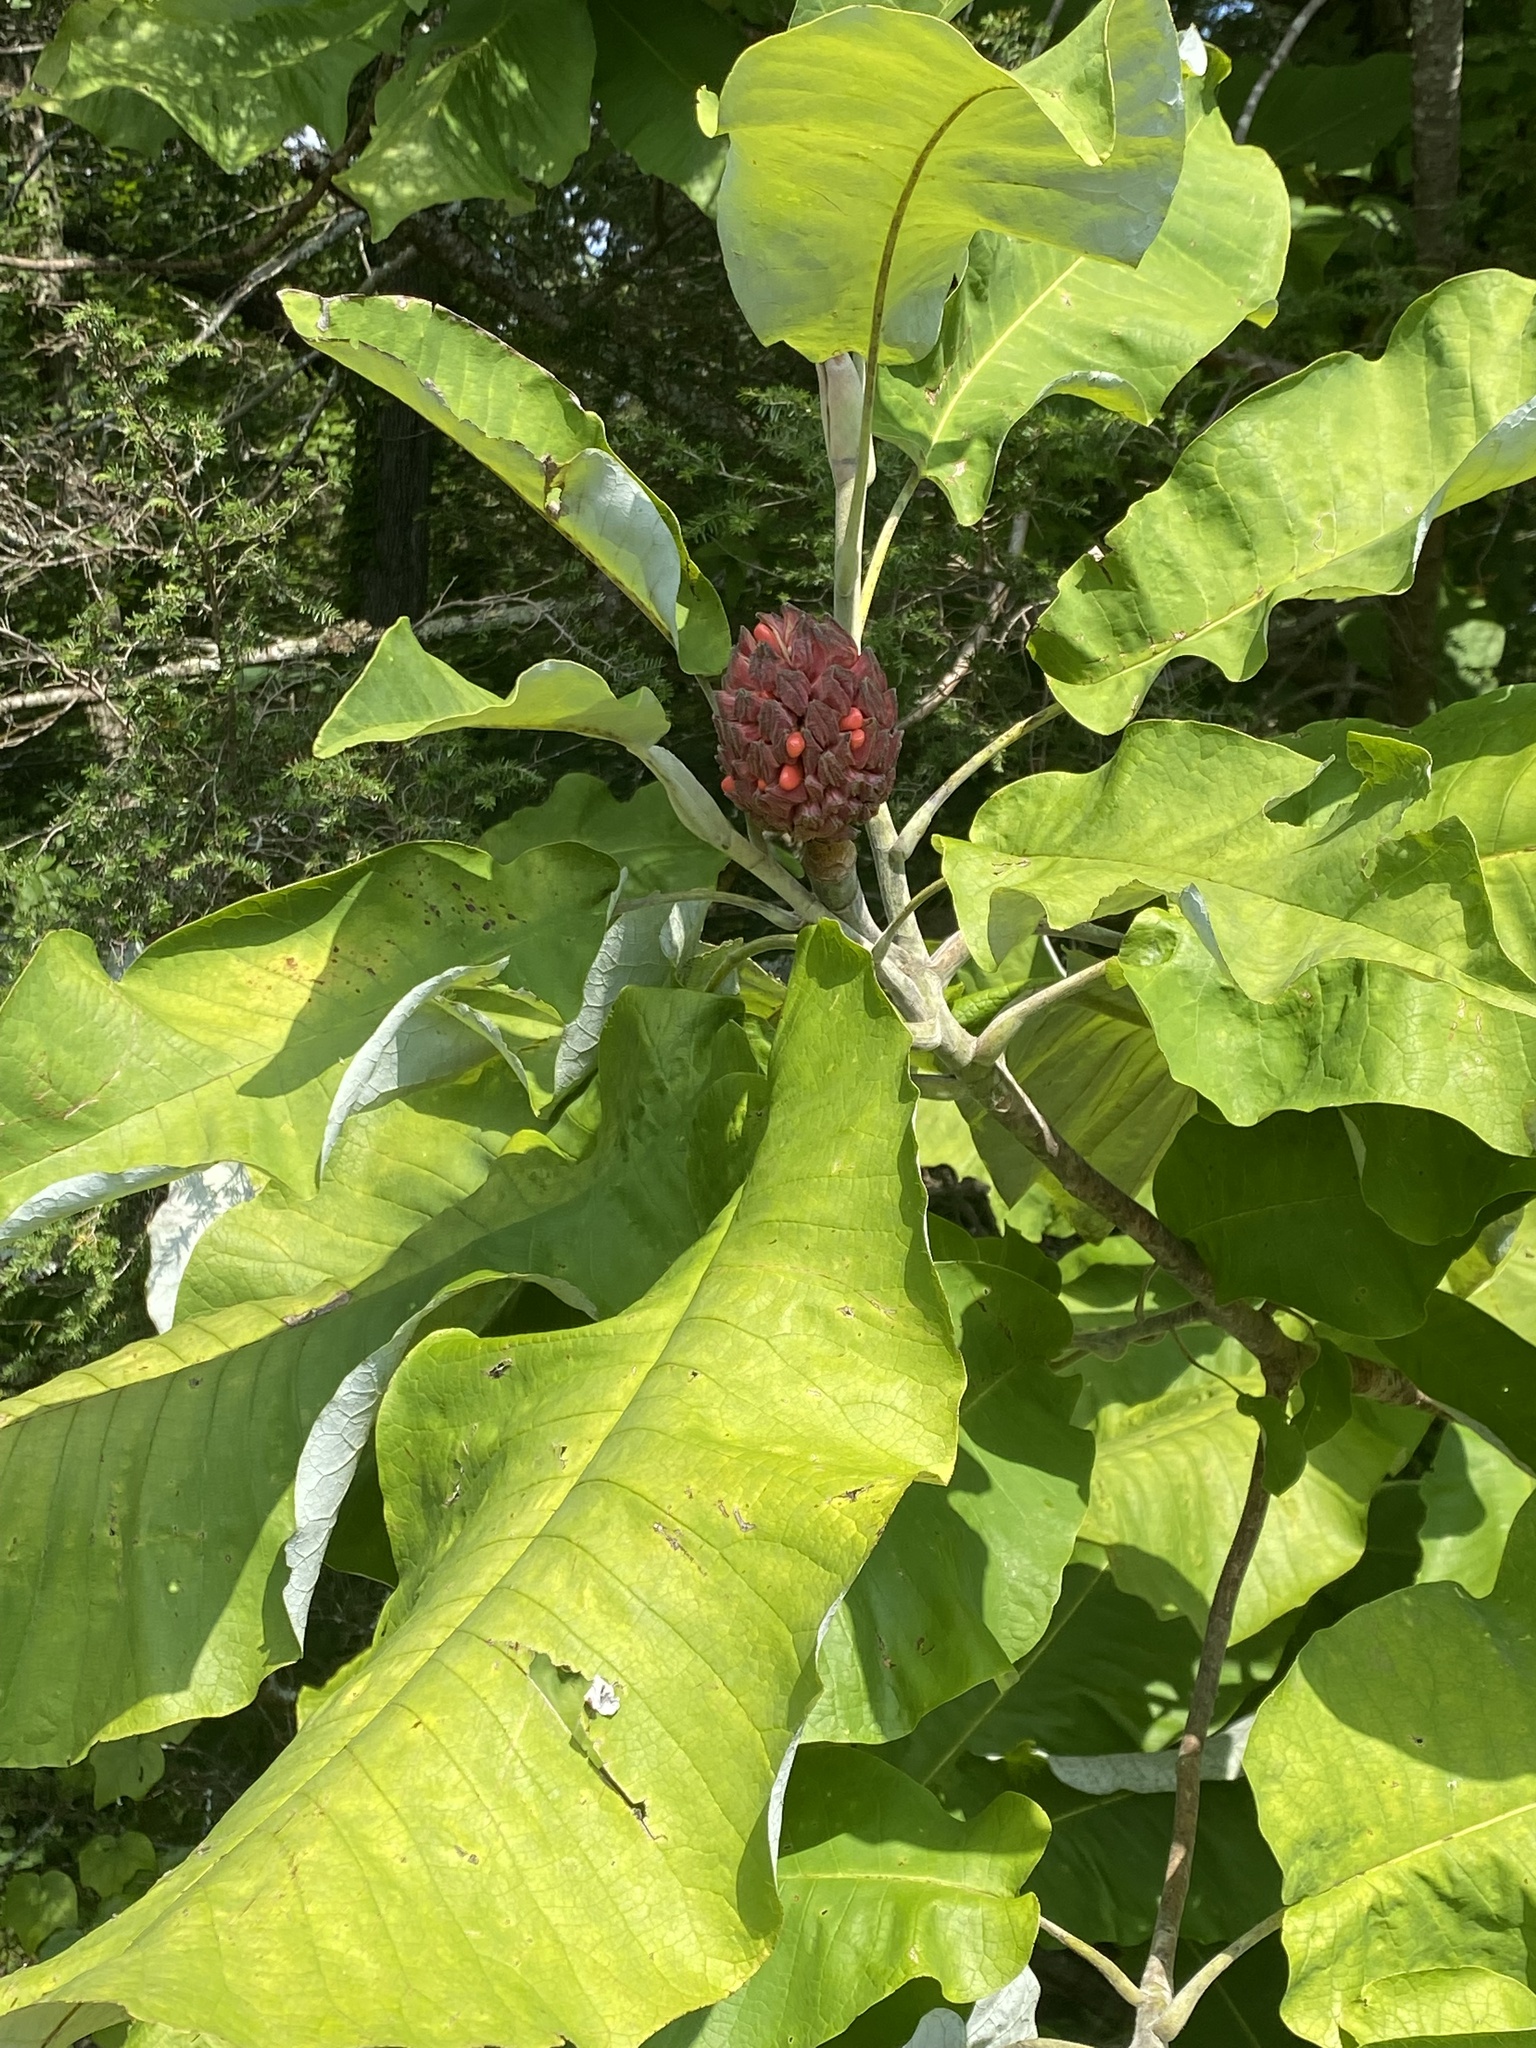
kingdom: Plantae
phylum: Tracheophyta
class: Magnoliopsida
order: Magnoliales
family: Magnoliaceae
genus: Magnolia
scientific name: Magnolia macrophylla
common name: Big-leaf magnolia
